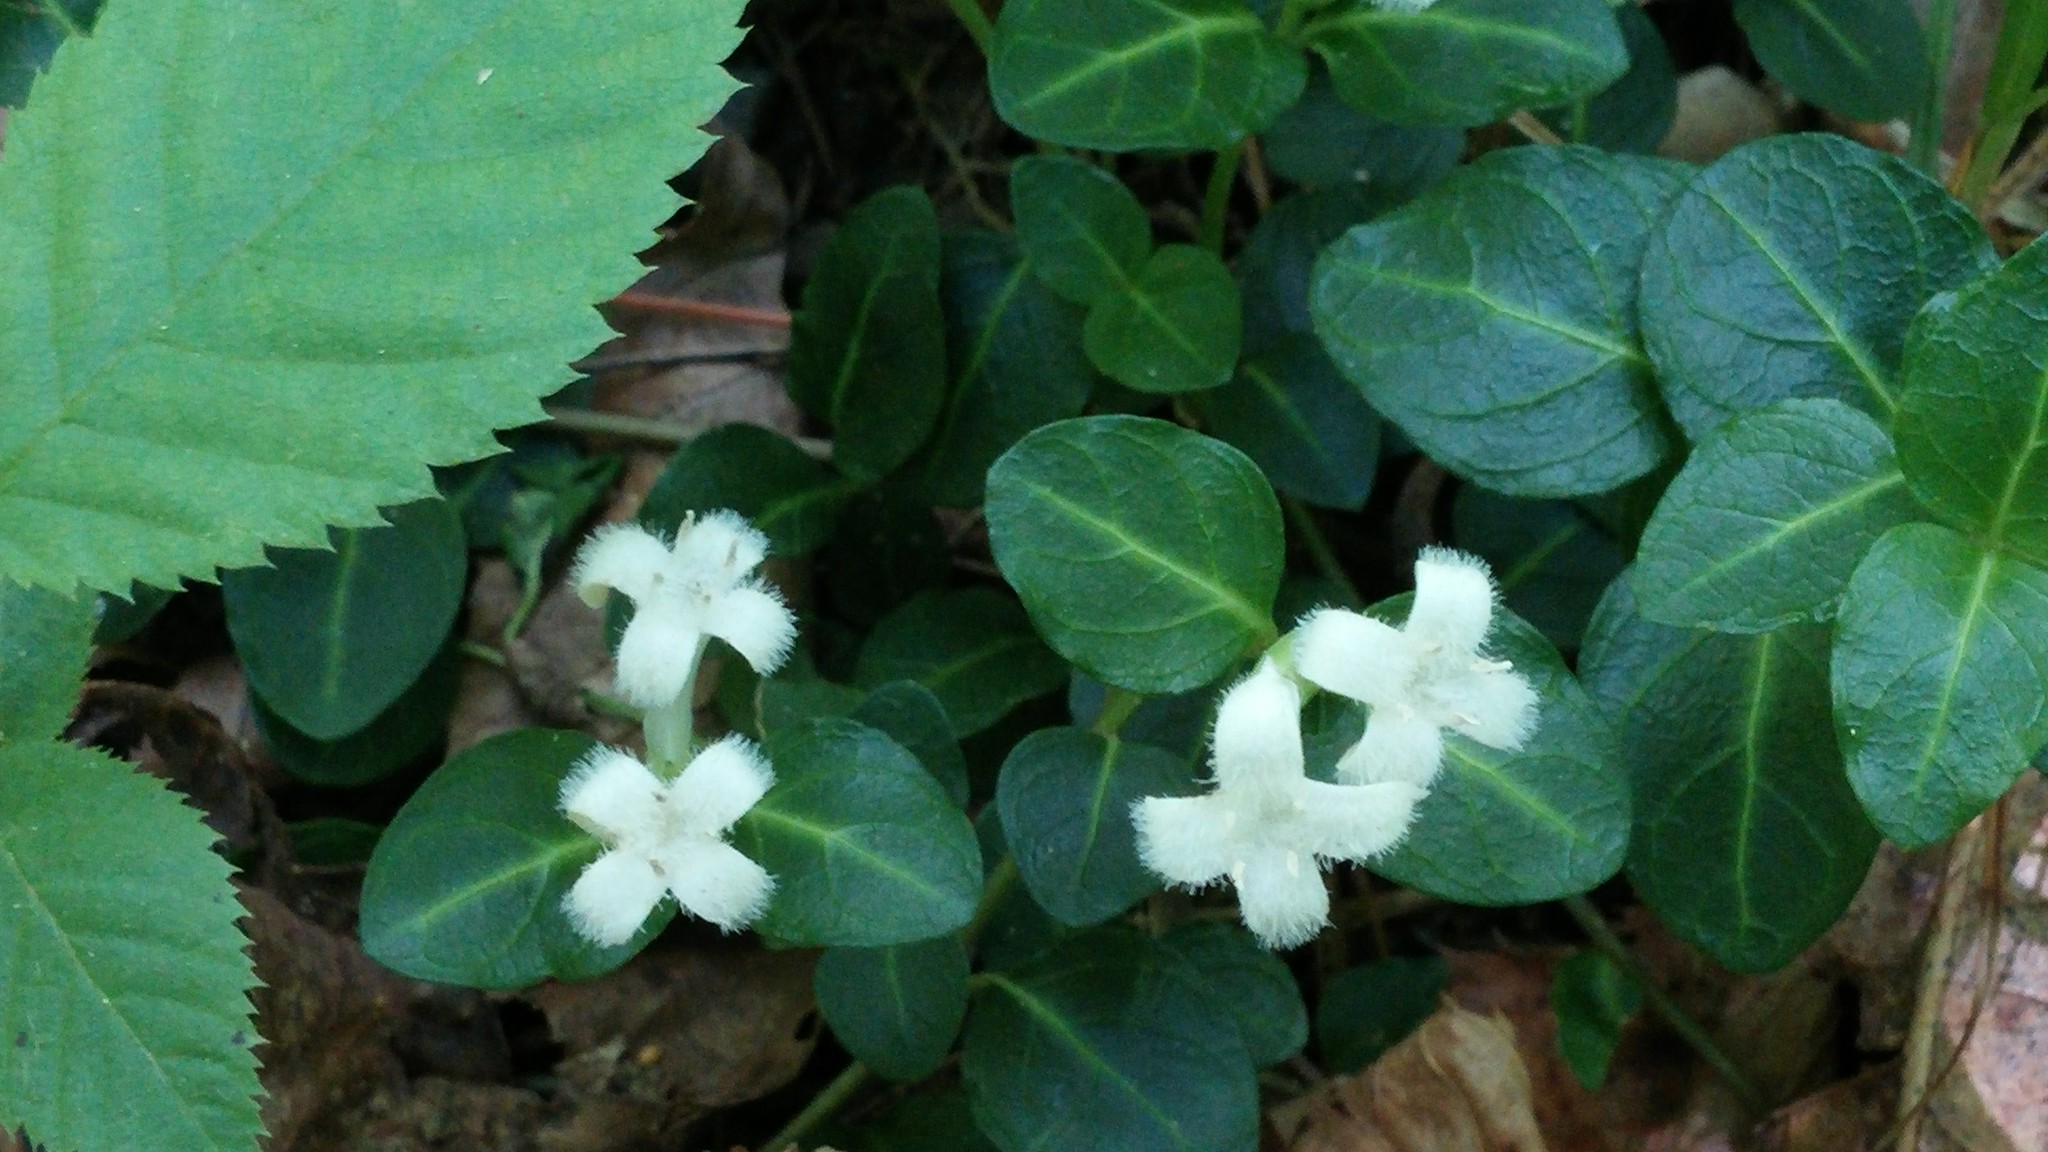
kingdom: Plantae
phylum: Tracheophyta
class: Magnoliopsida
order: Gentianales
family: Rubiaceae
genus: Mitchella
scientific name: Mitchella repens
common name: Partridge-berry
